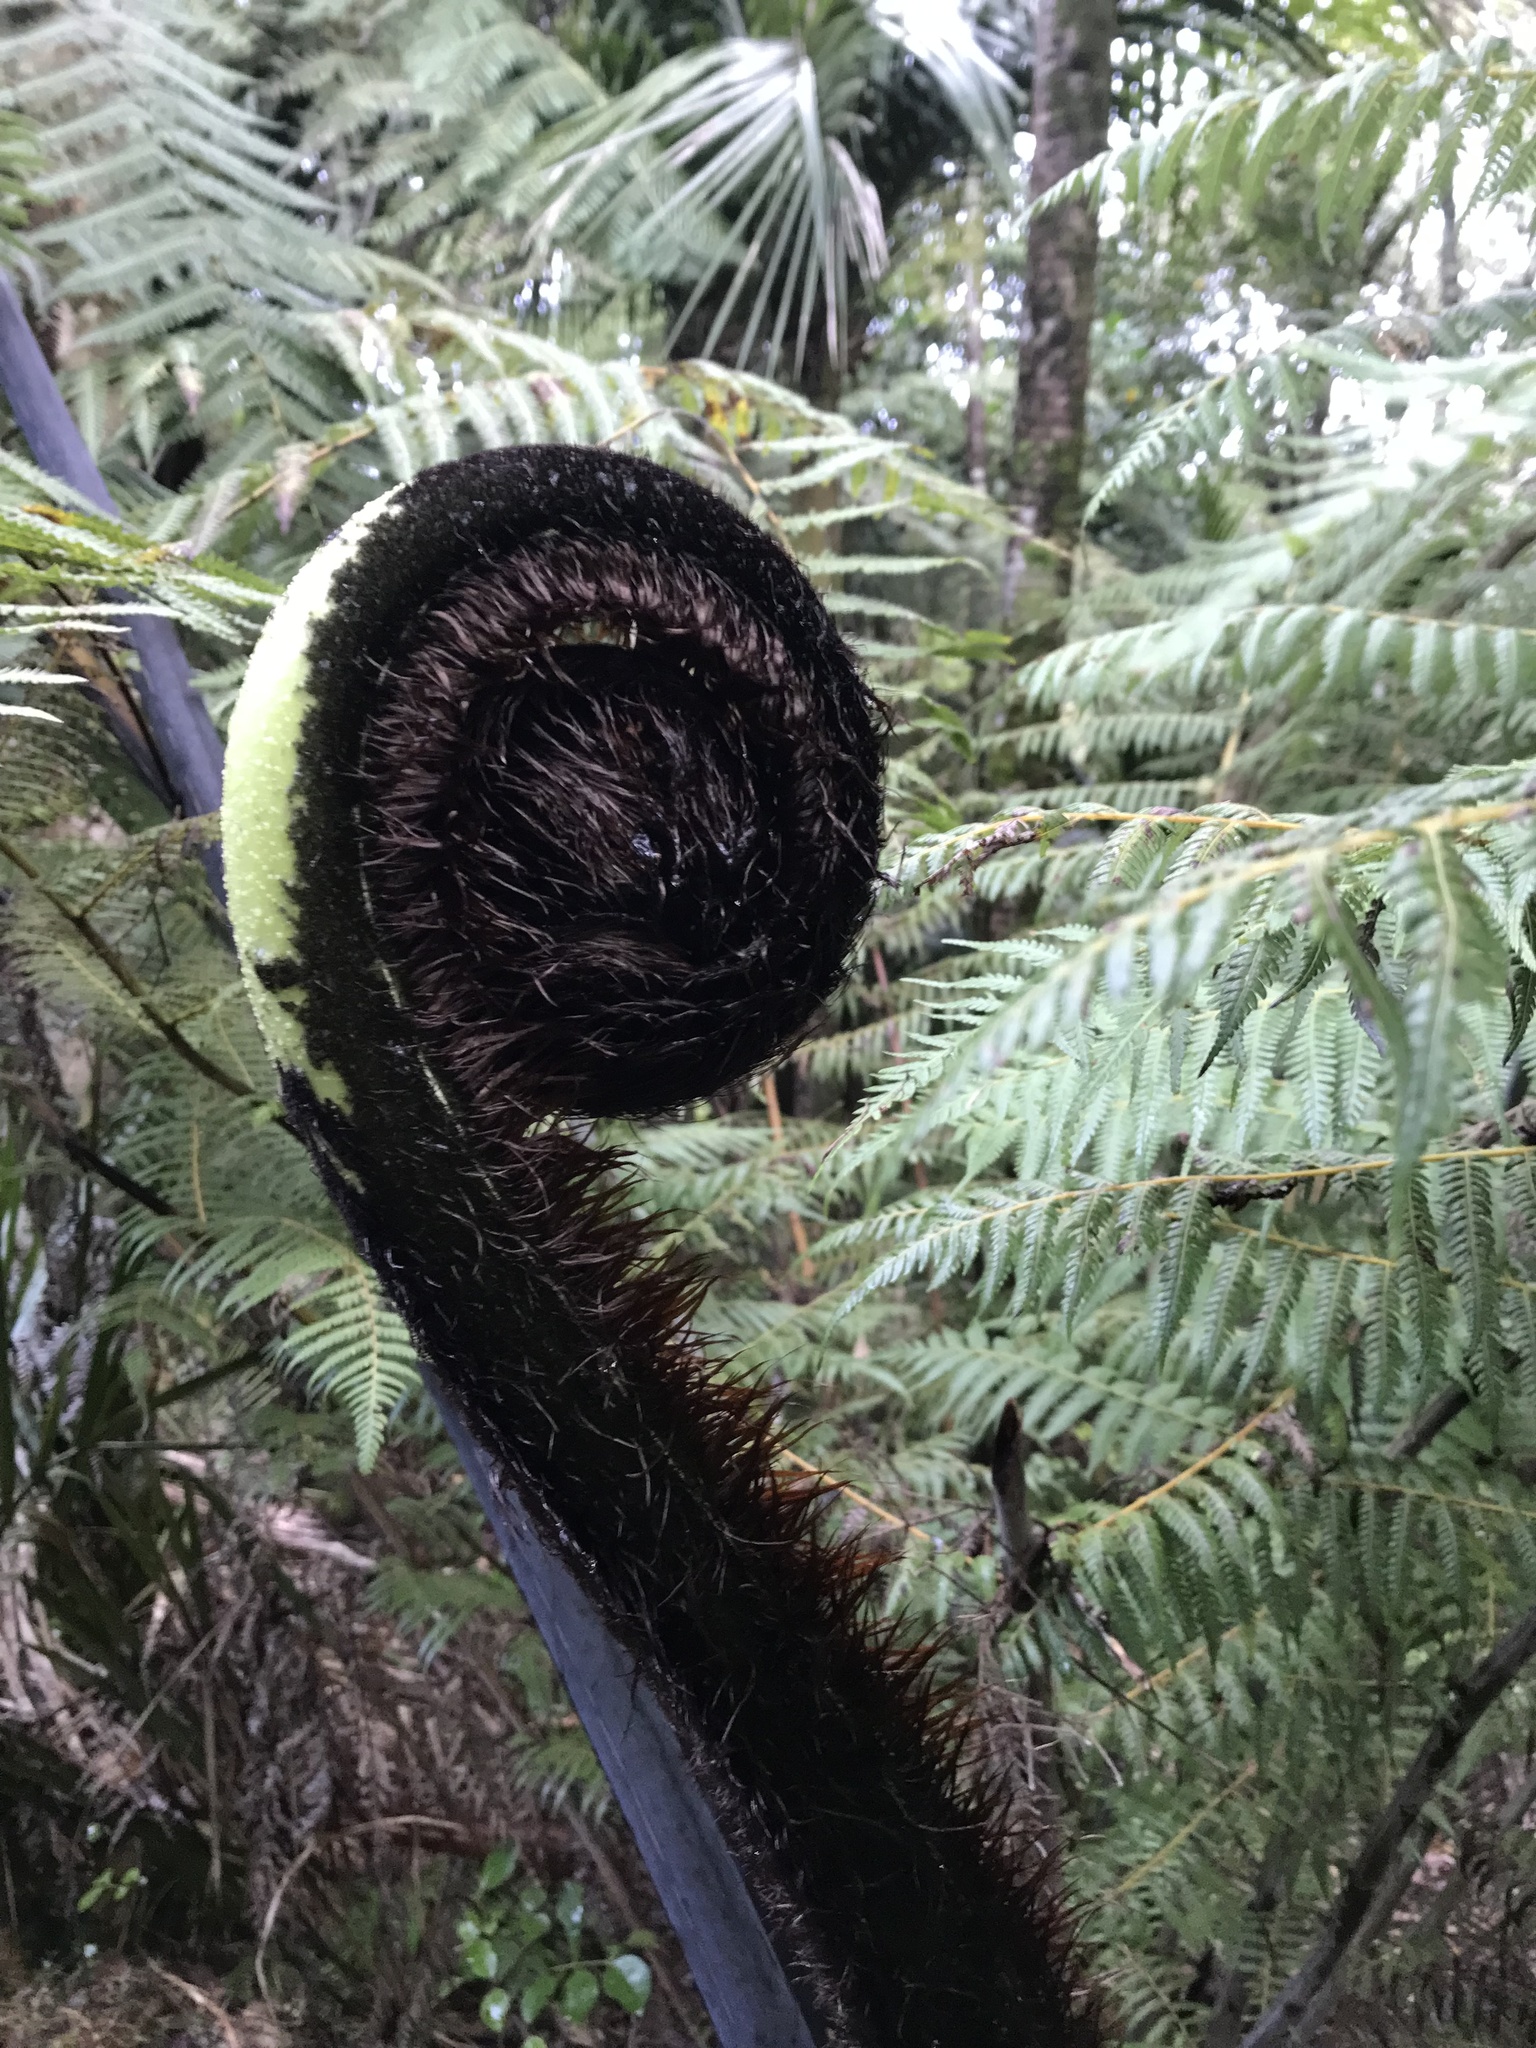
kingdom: Plantae
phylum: Tracheophyta
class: Polypodiopsida
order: Cyatheales
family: Cyatheaceae
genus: Sphaeropteris
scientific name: Sphaeropteris medullaris
